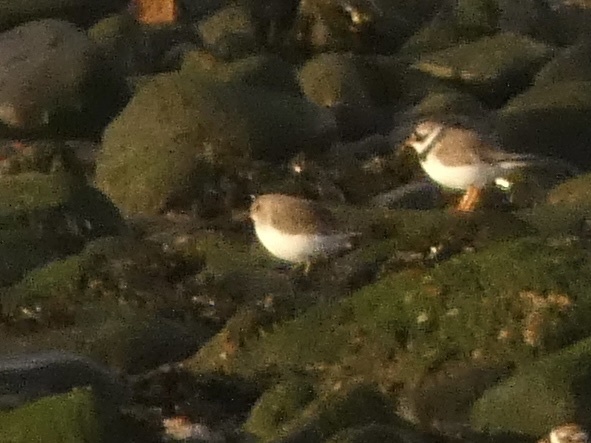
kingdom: Animalia
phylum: Chordata
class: Aves
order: Charadriiformes
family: Scolopacidae
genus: Calidris
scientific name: Calidris alpina
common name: Dunlin
